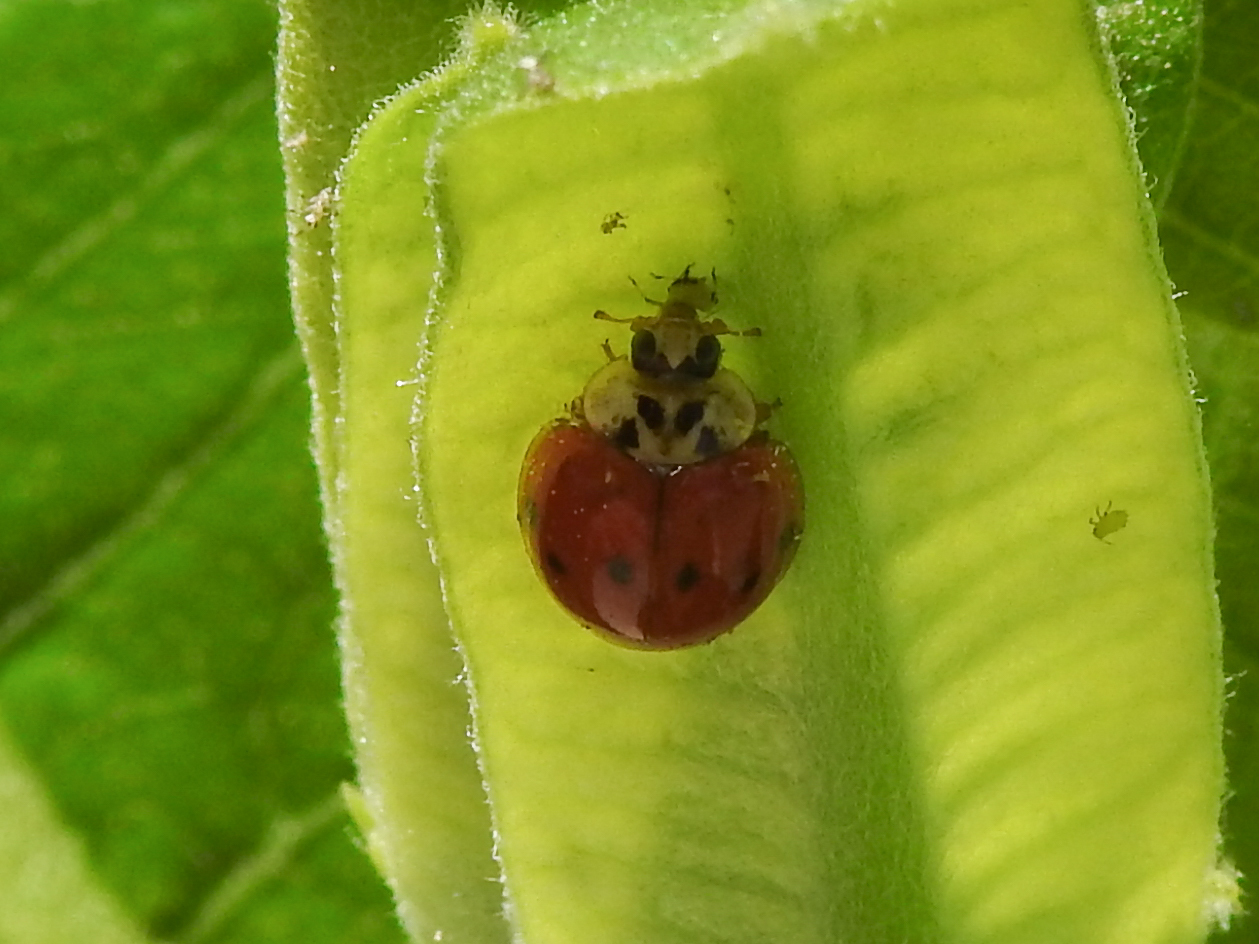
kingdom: Animalia
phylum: Arthropoda
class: Insecta
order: Coleoptera
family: Coccinellidae
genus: Harmonia
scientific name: Harmonia axyridis
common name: Harlequin ladybird
